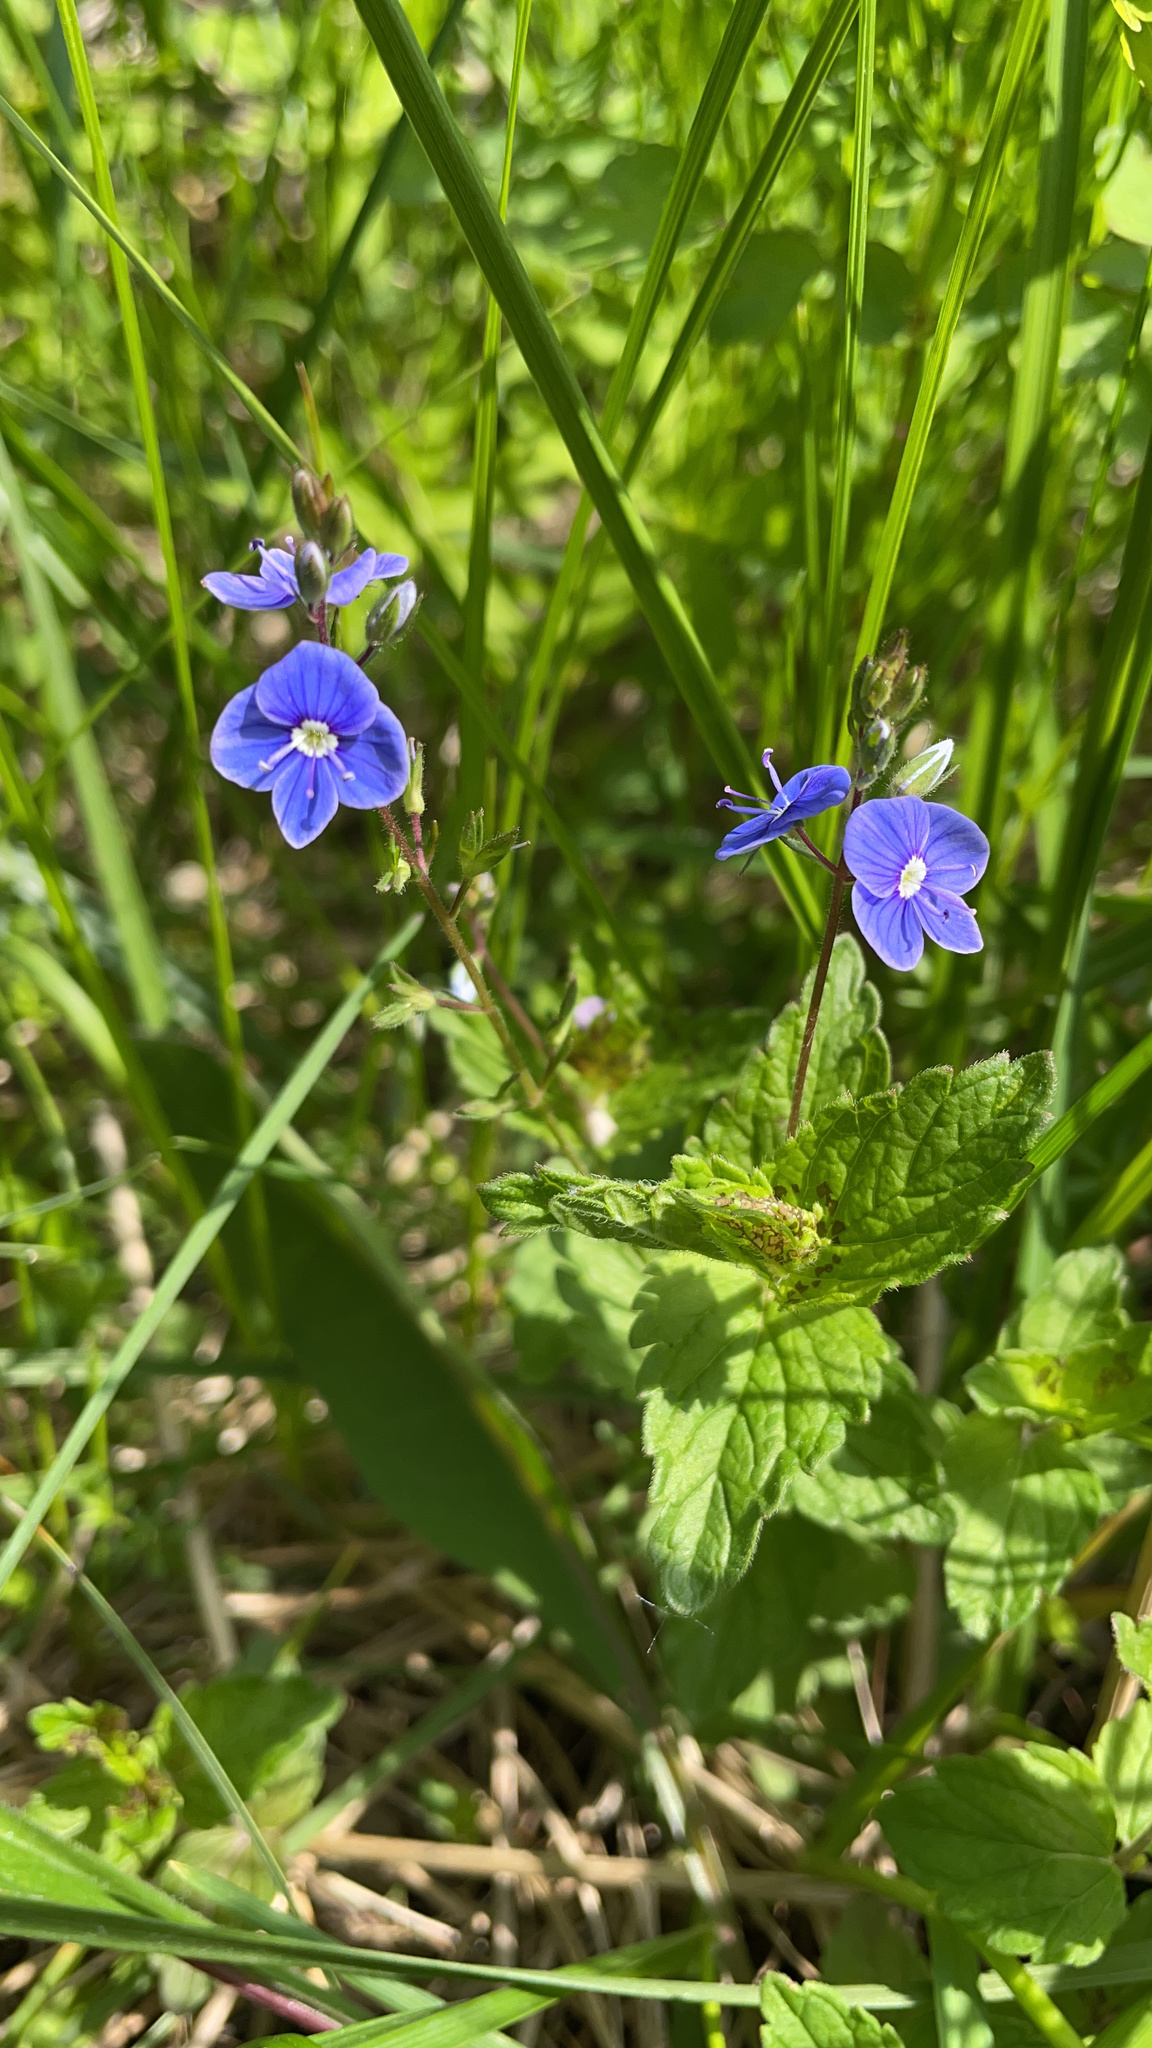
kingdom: Plantae
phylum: Tracheophyta
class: Magnoliopsida
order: Lamiales
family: Plantaginaceae
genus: Veronica
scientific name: Veronica chamaedrys
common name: Germander speedwell
